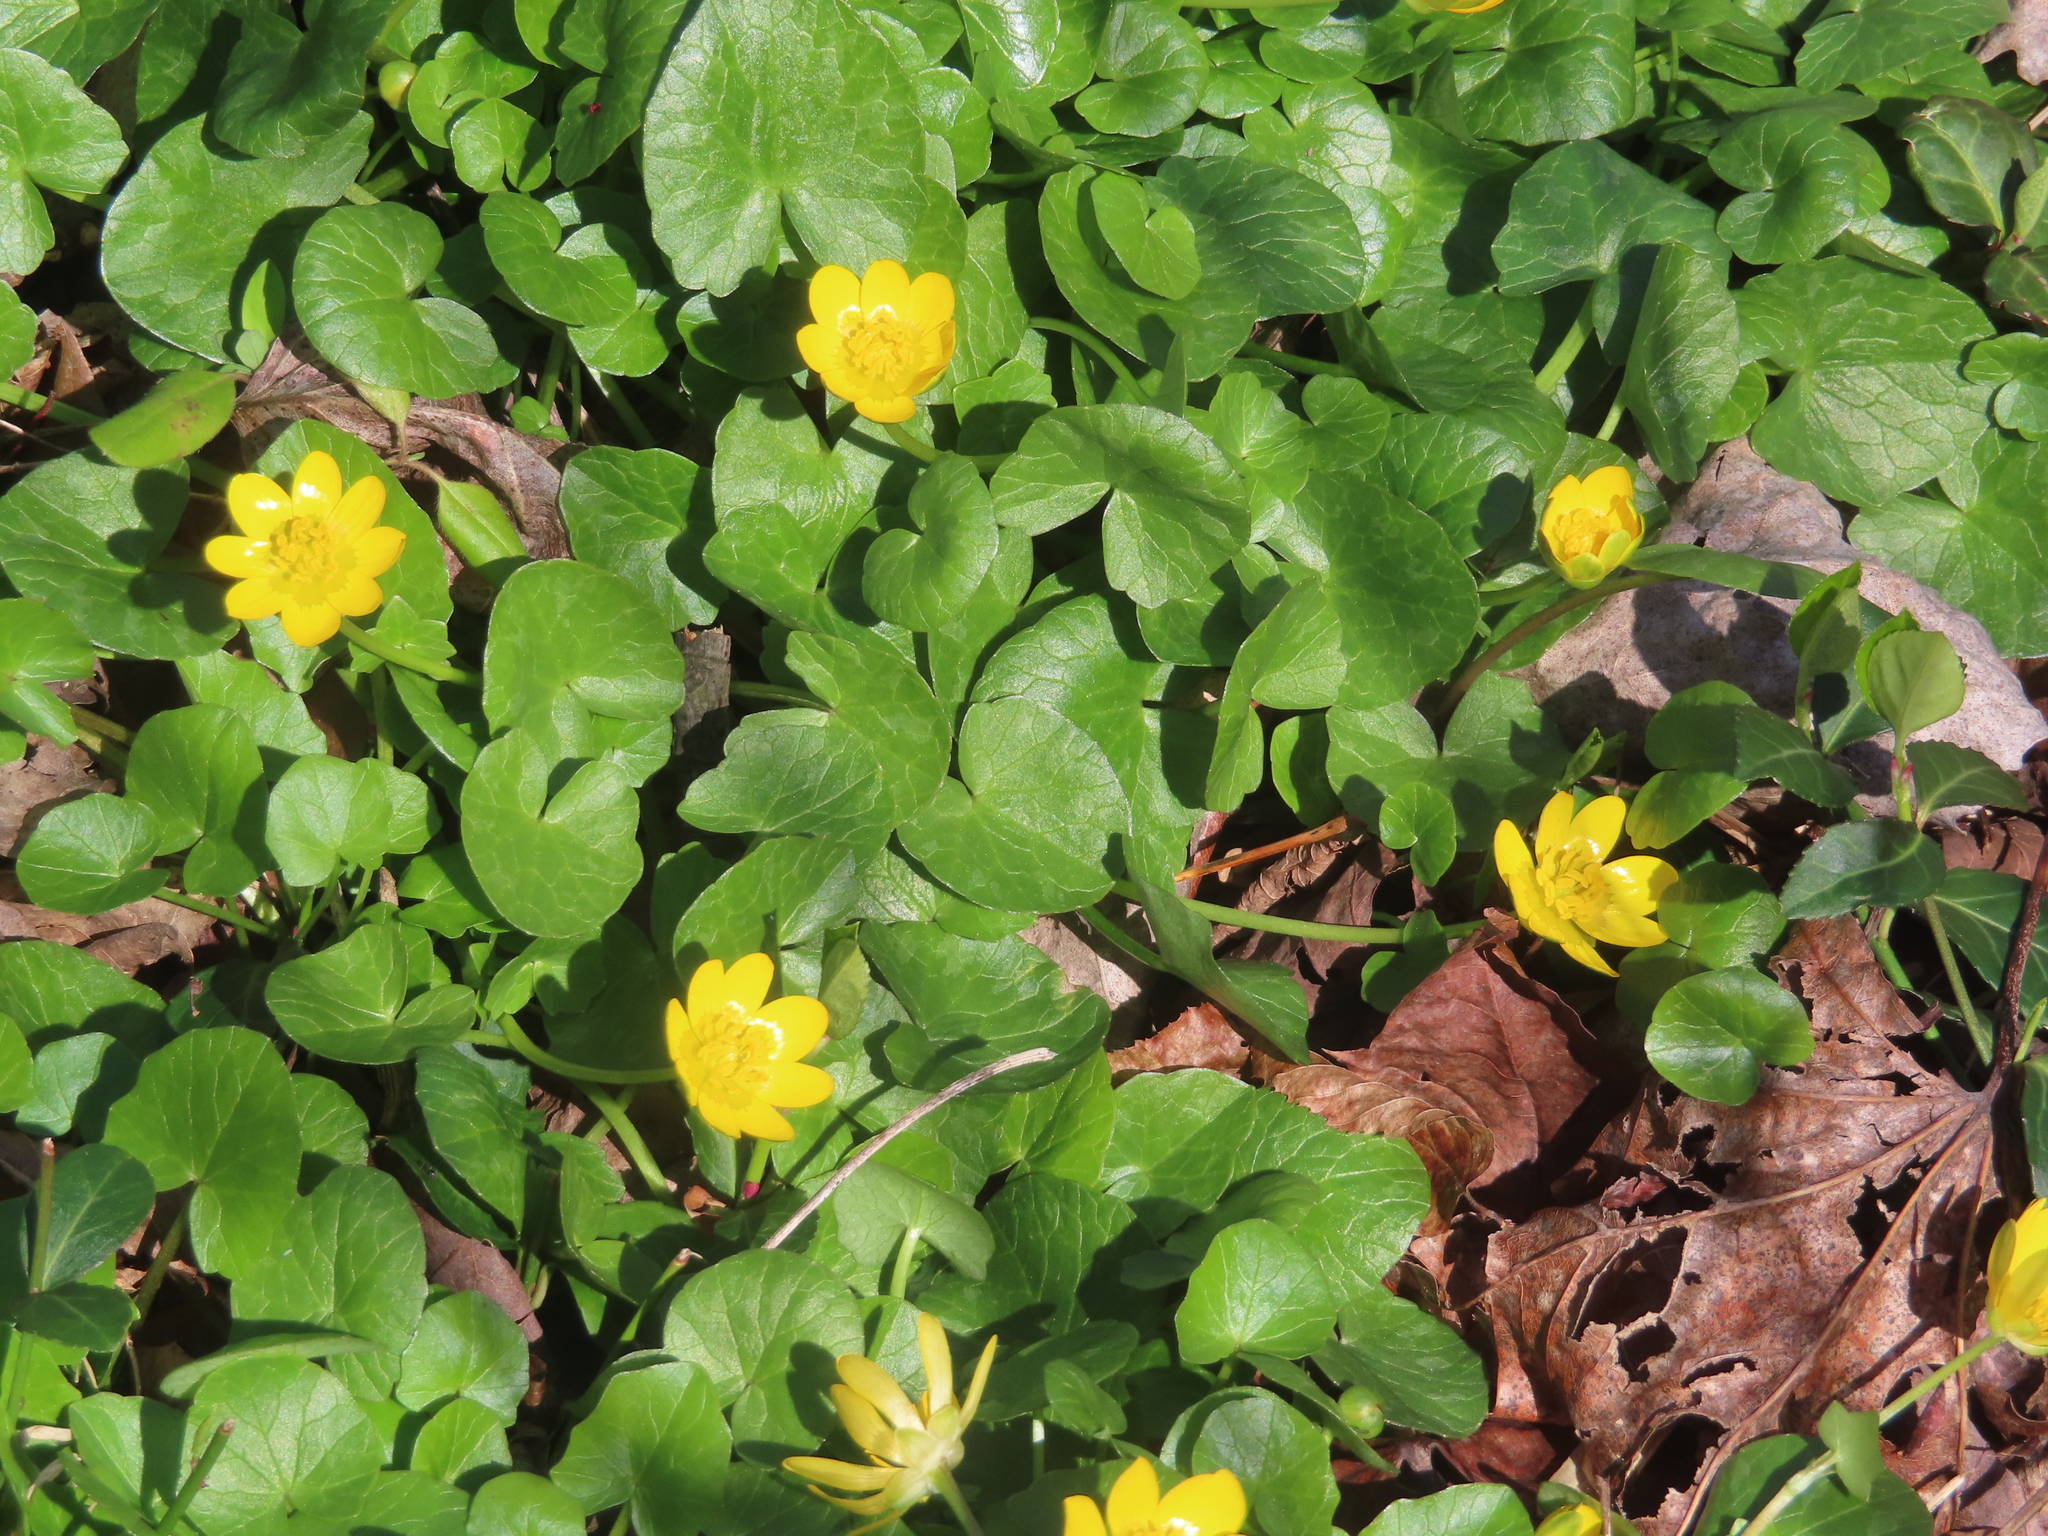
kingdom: Plantae
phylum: Tracheophyta
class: Magnoliopsida
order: Ranunculales
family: Ranunculaceae
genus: Ficaria
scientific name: Ficaria verna
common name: Lesser celandine
